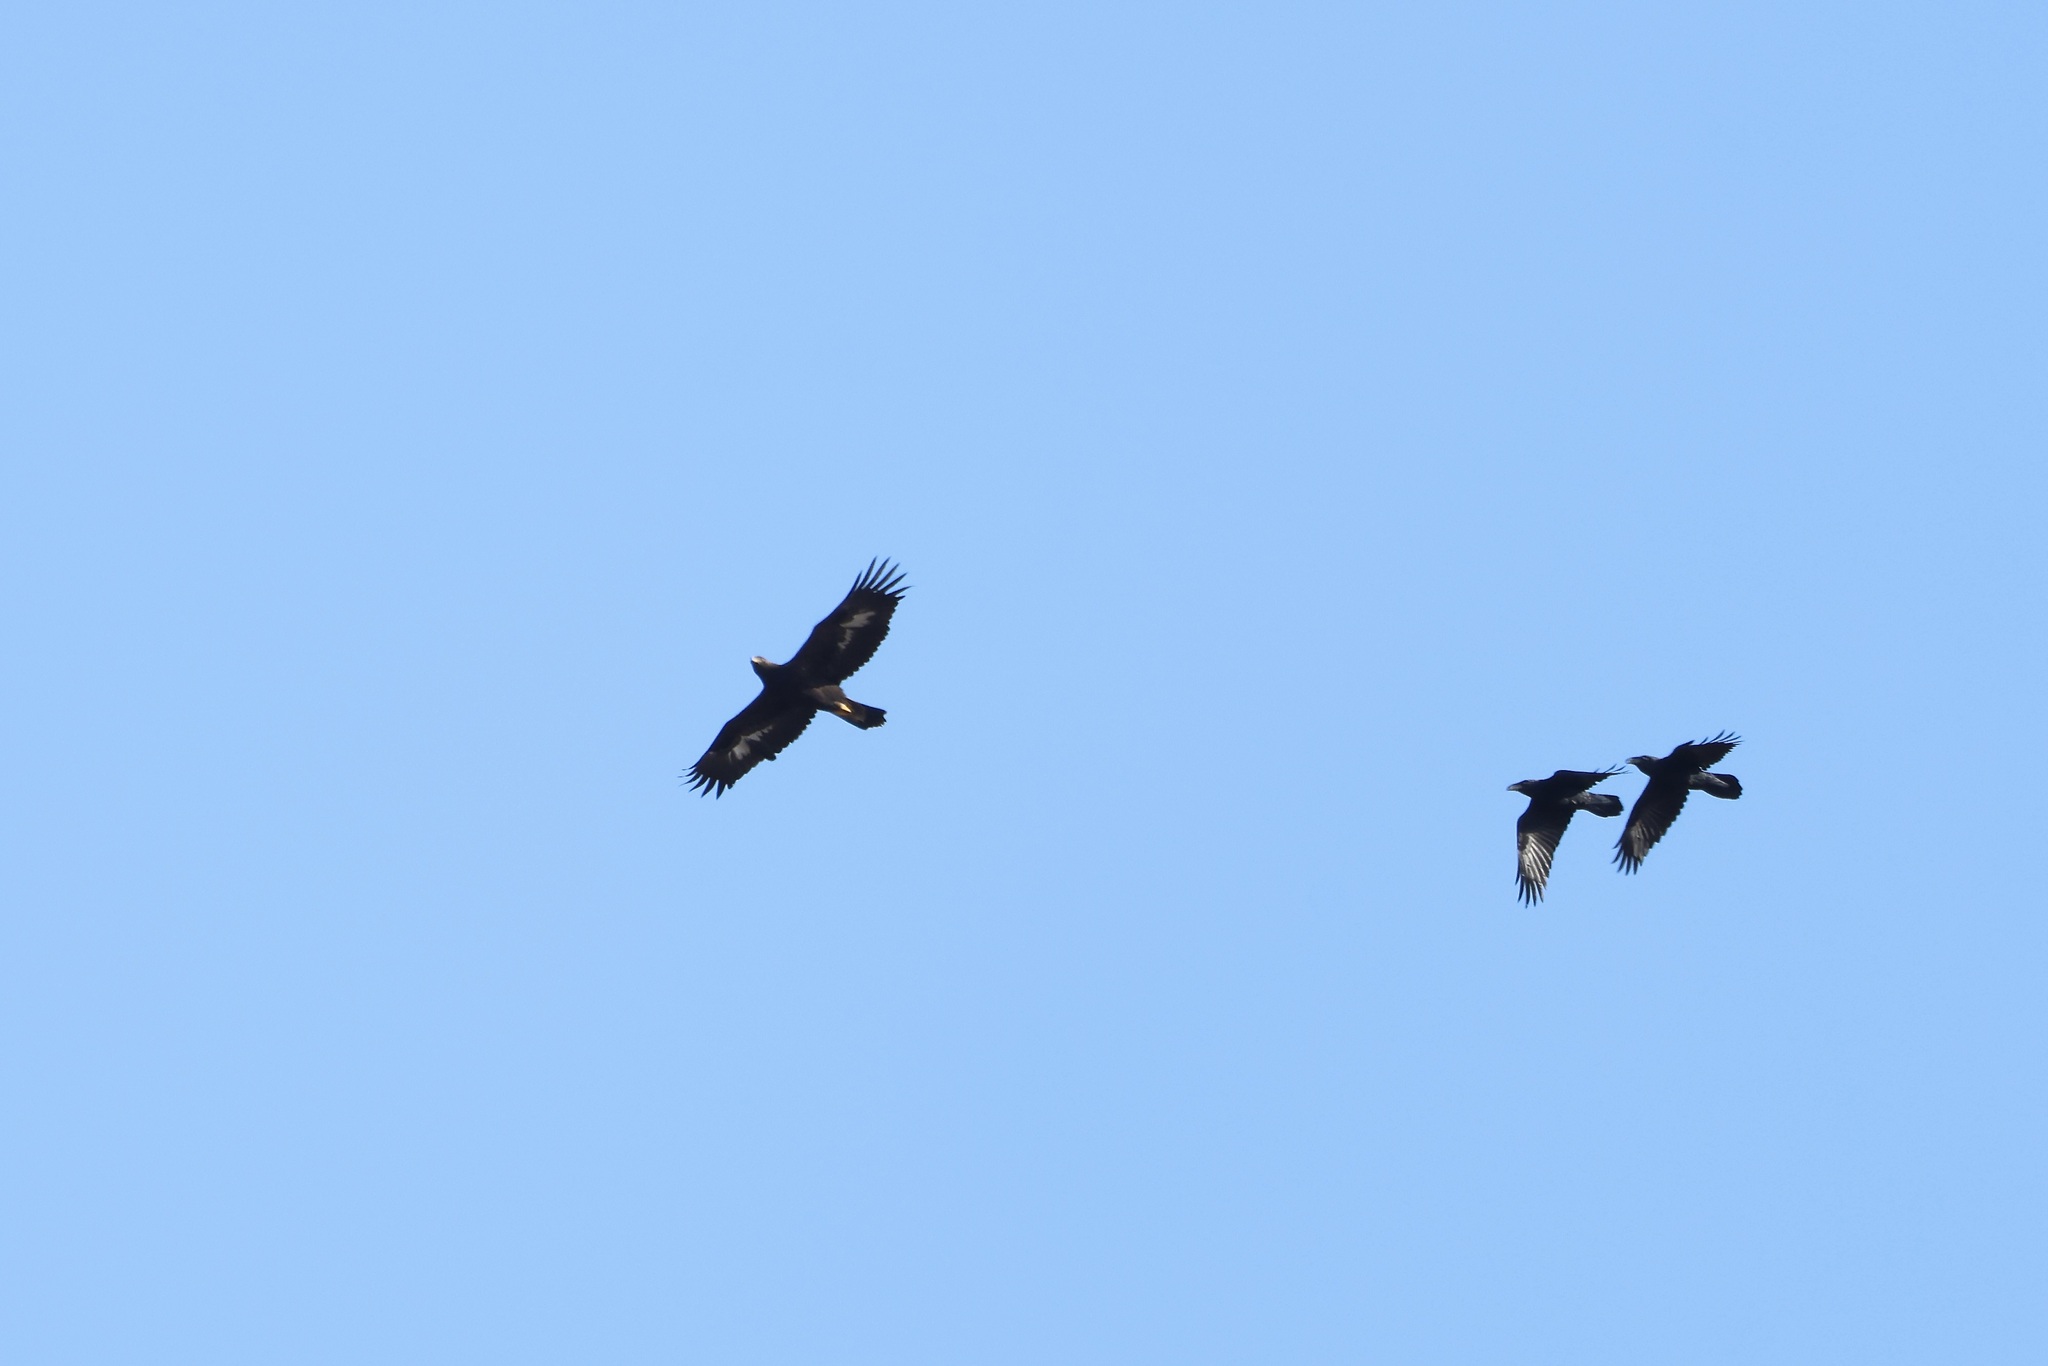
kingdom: Animalia
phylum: Chordata
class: Aves
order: Passeriformes
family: Corvidae
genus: Corvus
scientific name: Corvus corax
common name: Common raven
